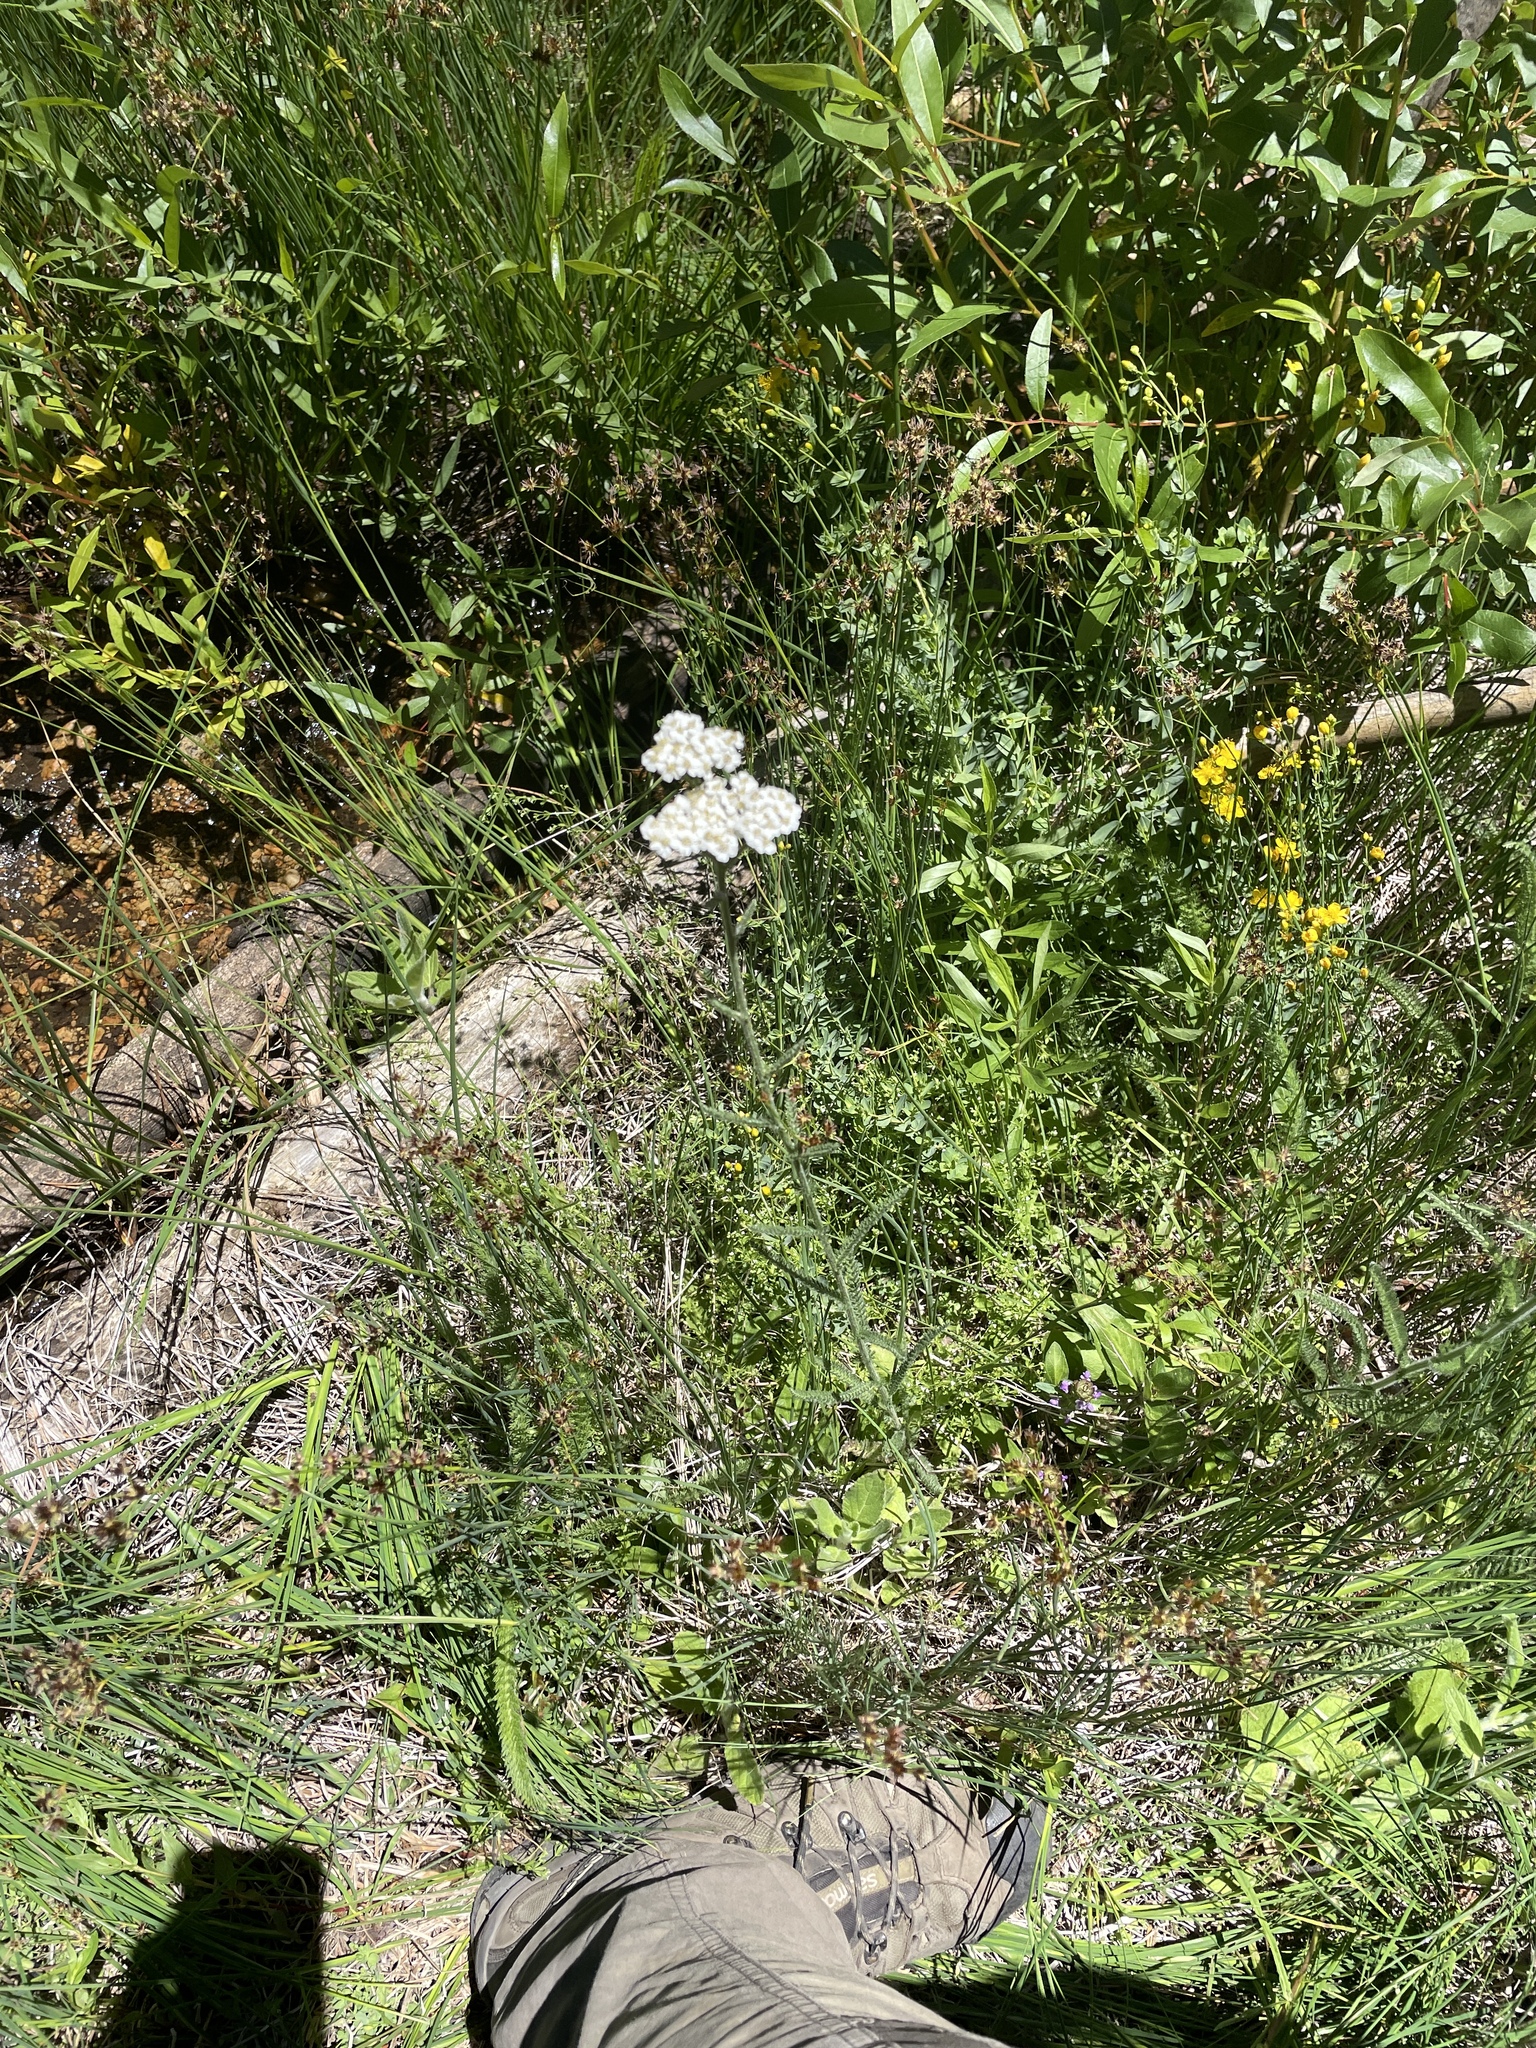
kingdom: Plantae
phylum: Tracheophyta
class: Magnoliopsida
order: Asterales
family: Asteraceae
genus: Achillea
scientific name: Achillea millefolium
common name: Yarrow
